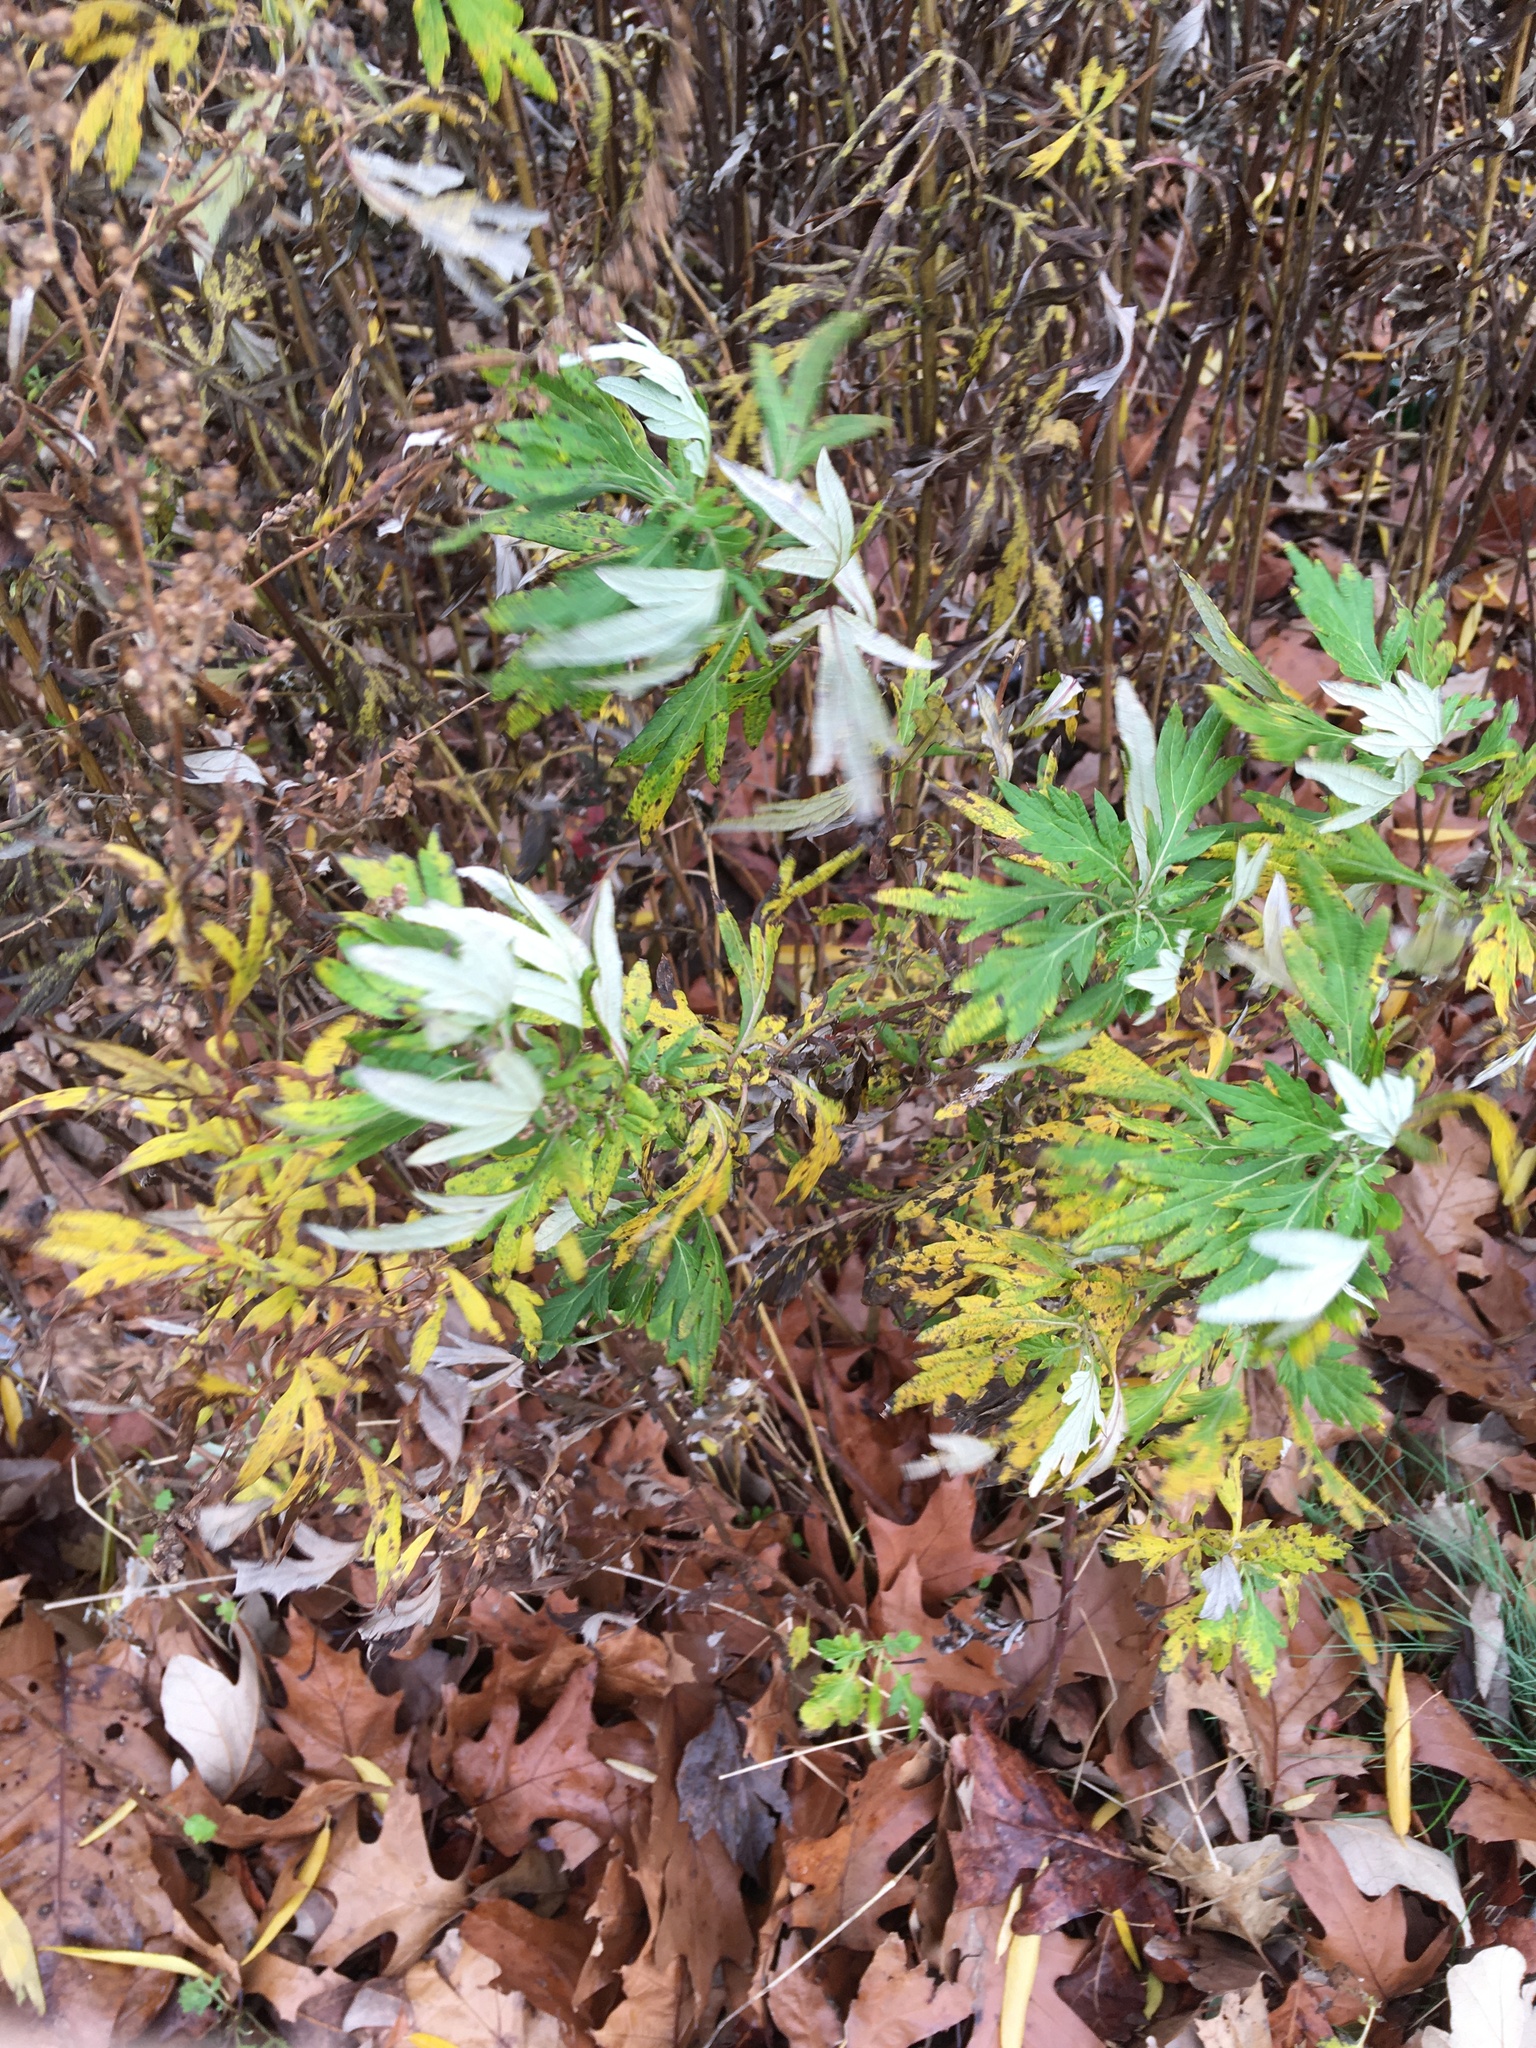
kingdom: Plantae
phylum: Tracheophyta
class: Magnoliopsida
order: Asterales
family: Asteraceae
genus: Artemisia
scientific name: Artemisia vulgaris
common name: Mugwort
